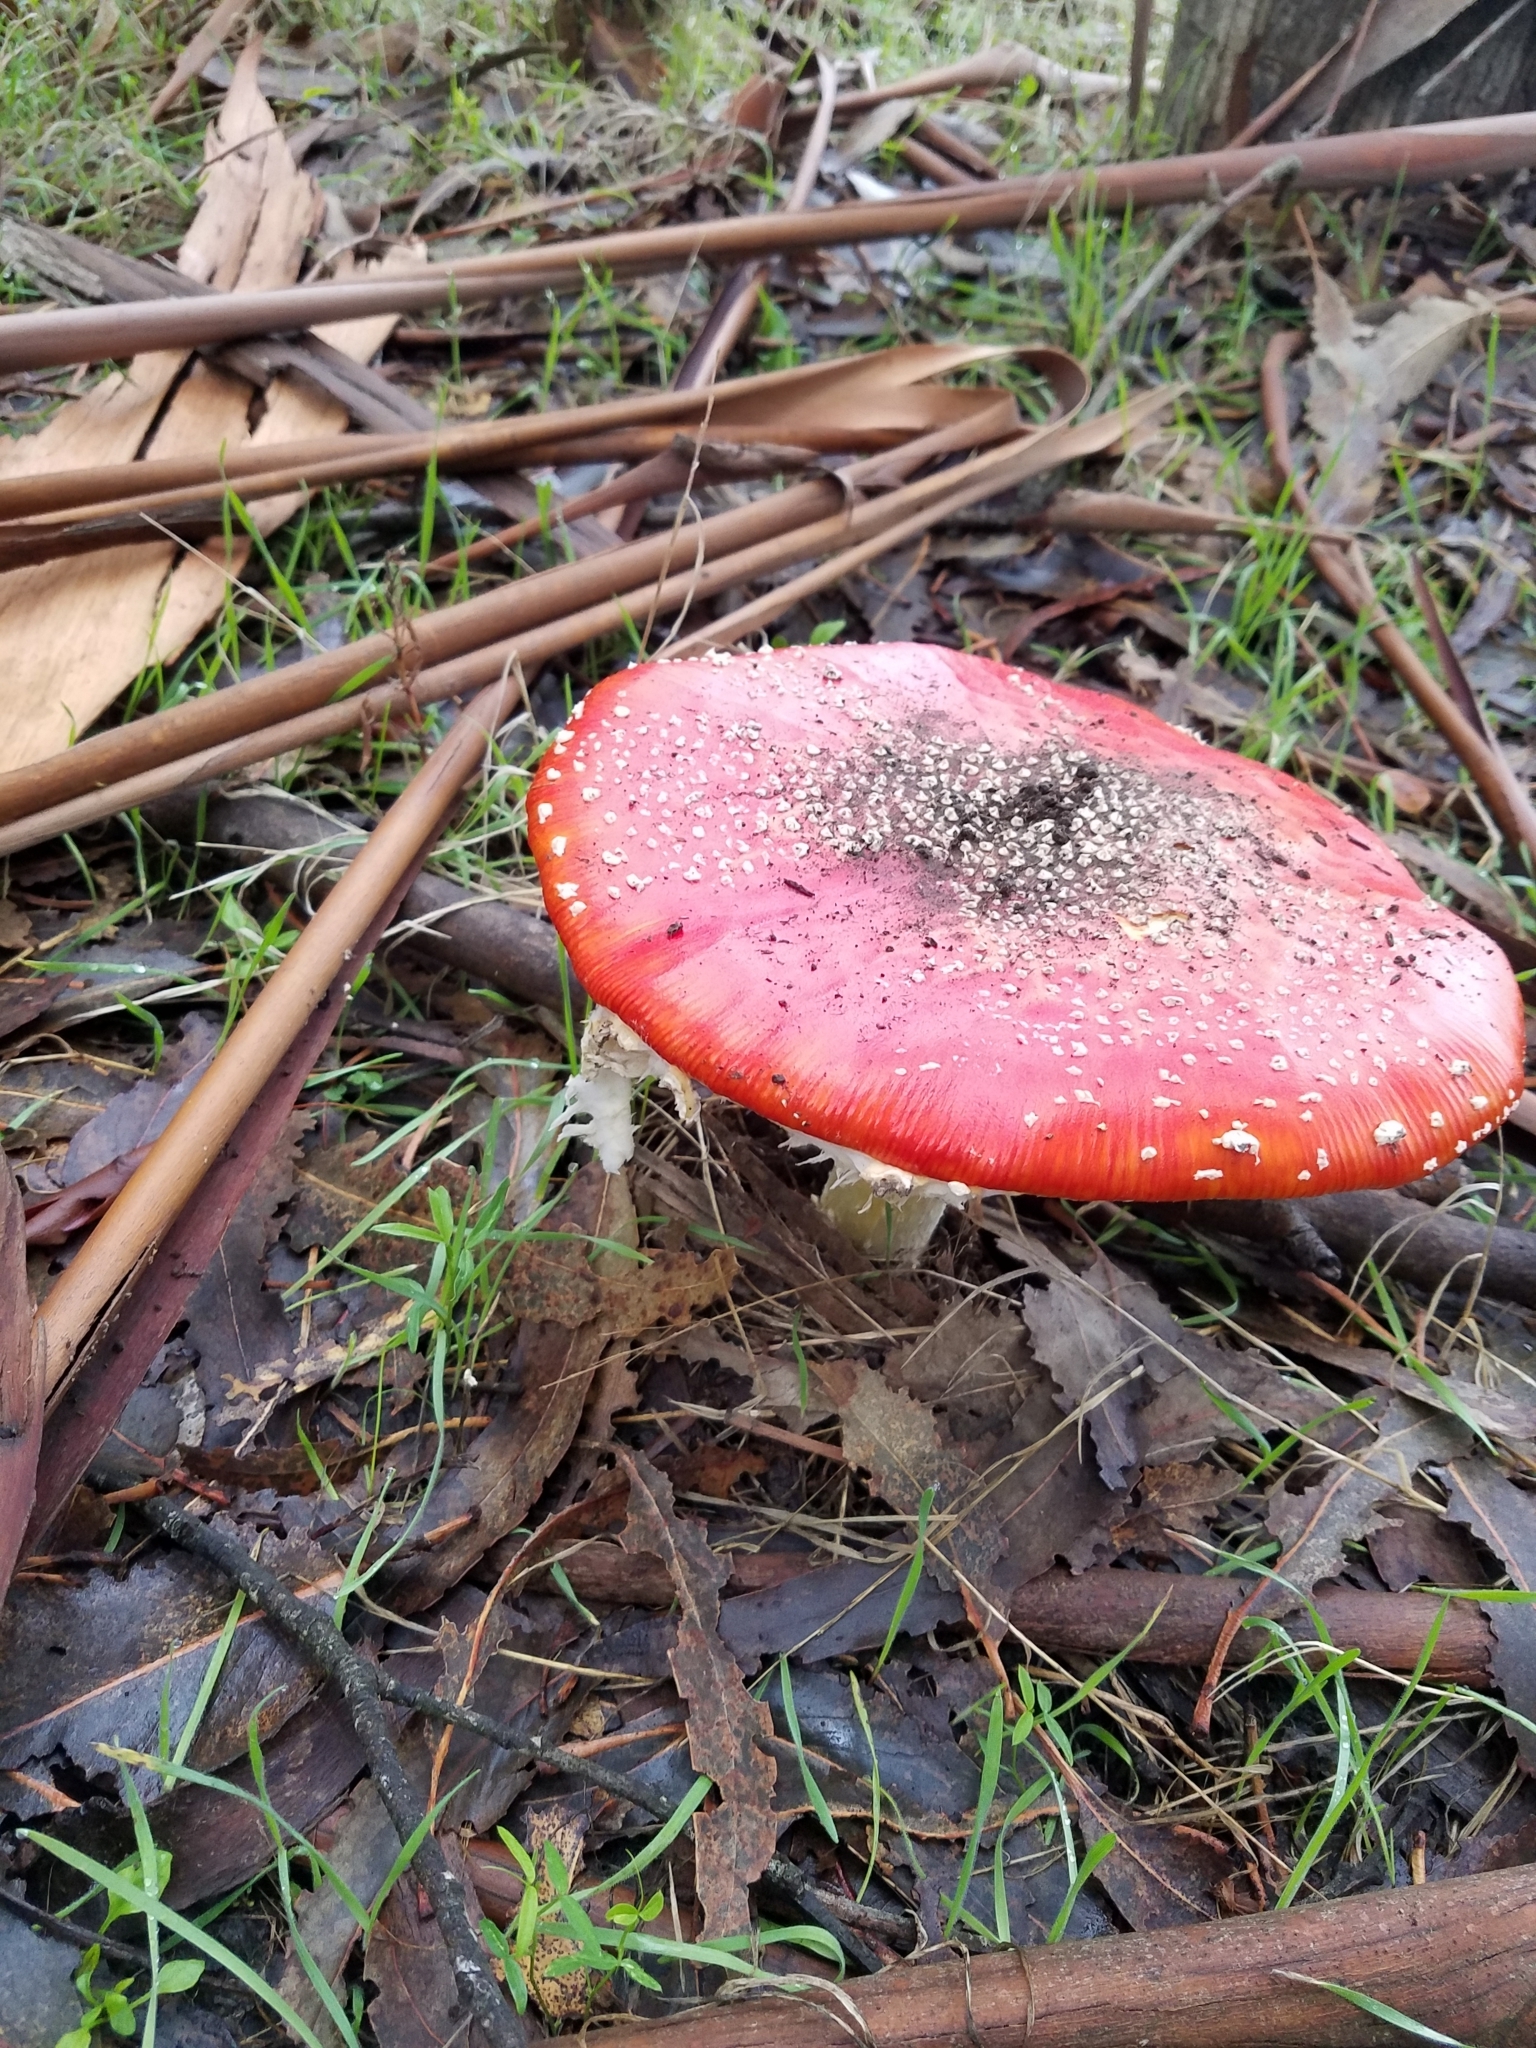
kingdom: Fungi
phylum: Basidiomycota
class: Agaricomycetes
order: Agaricales
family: Amanitaceae
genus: Amanita
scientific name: Amanita muscaria
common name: Fly agaric
